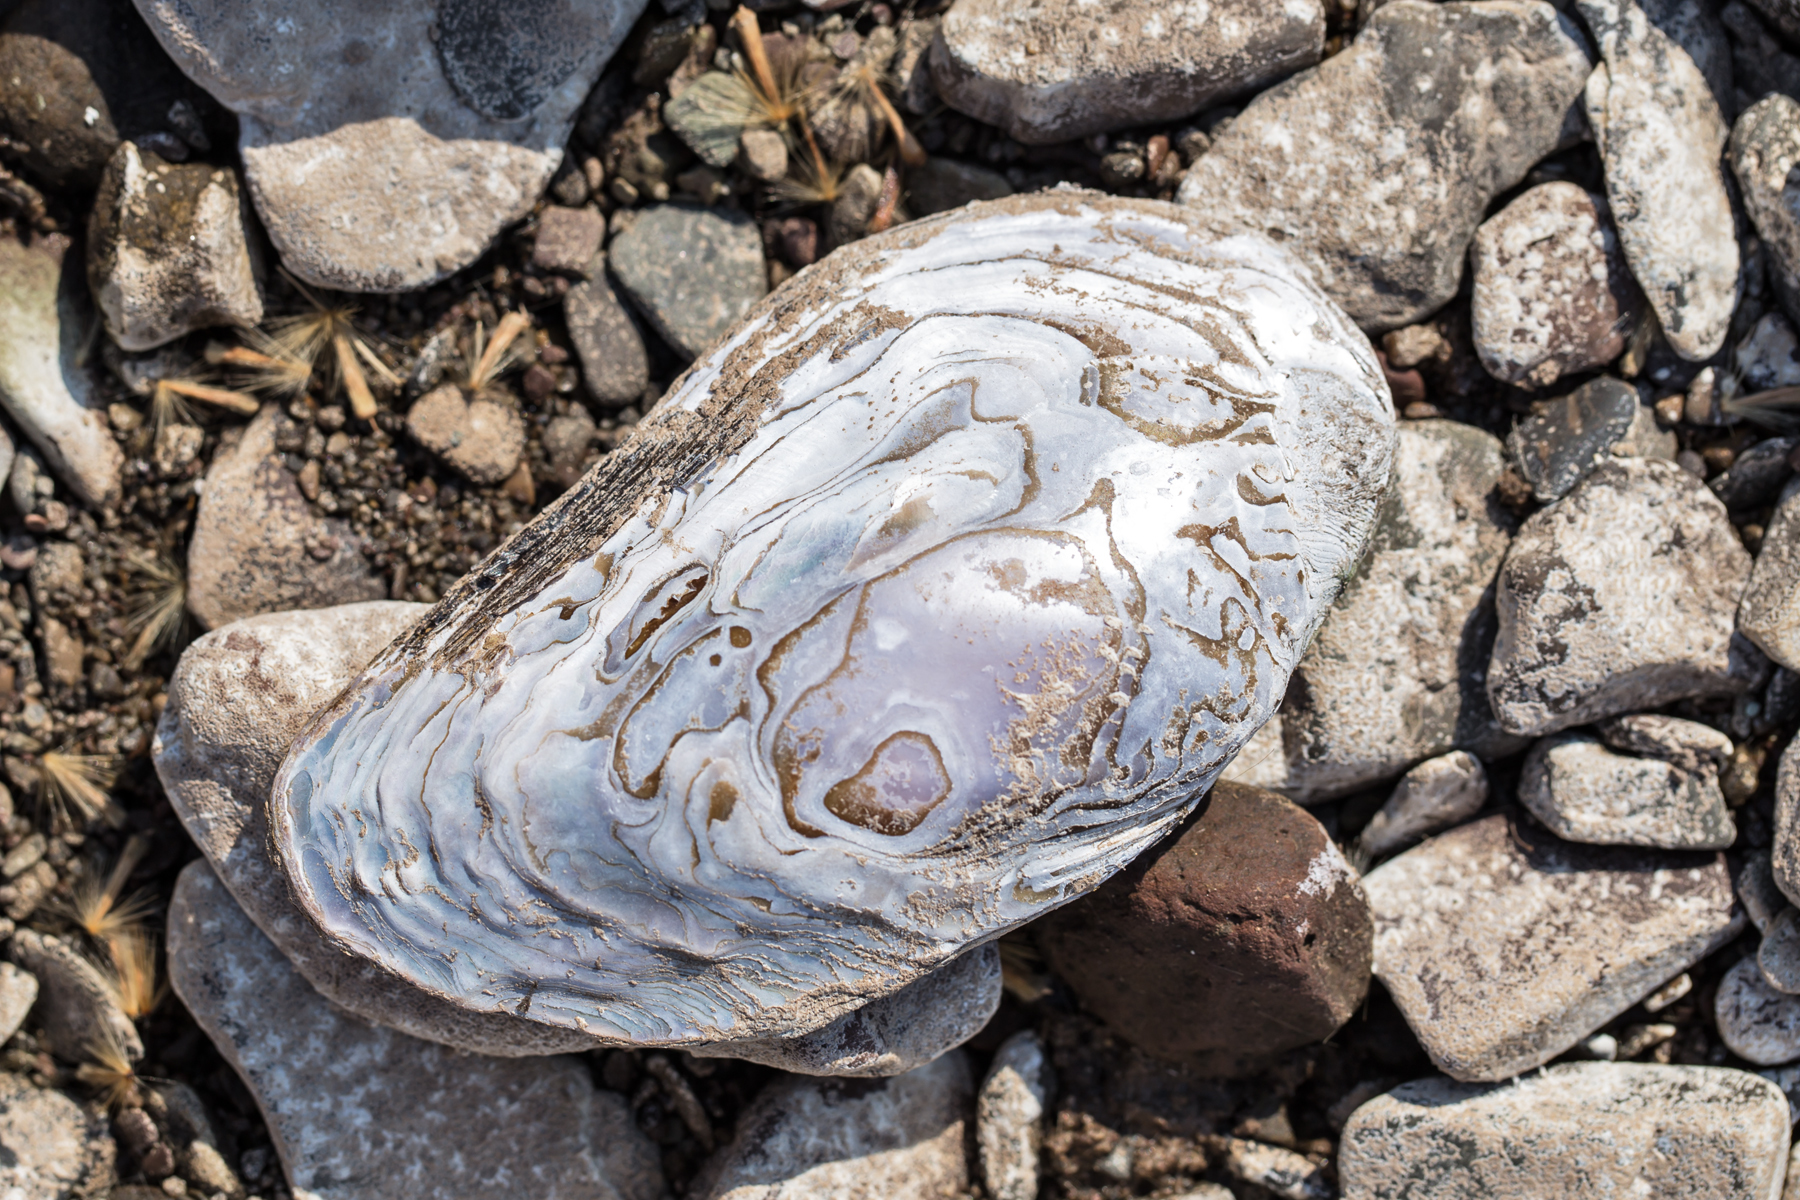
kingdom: Animalia
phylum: Mollusca
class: Bivalvia
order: Unionida
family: Unionidae
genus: Elliptio
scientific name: Elliptio complanata
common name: Eastern elliptio
